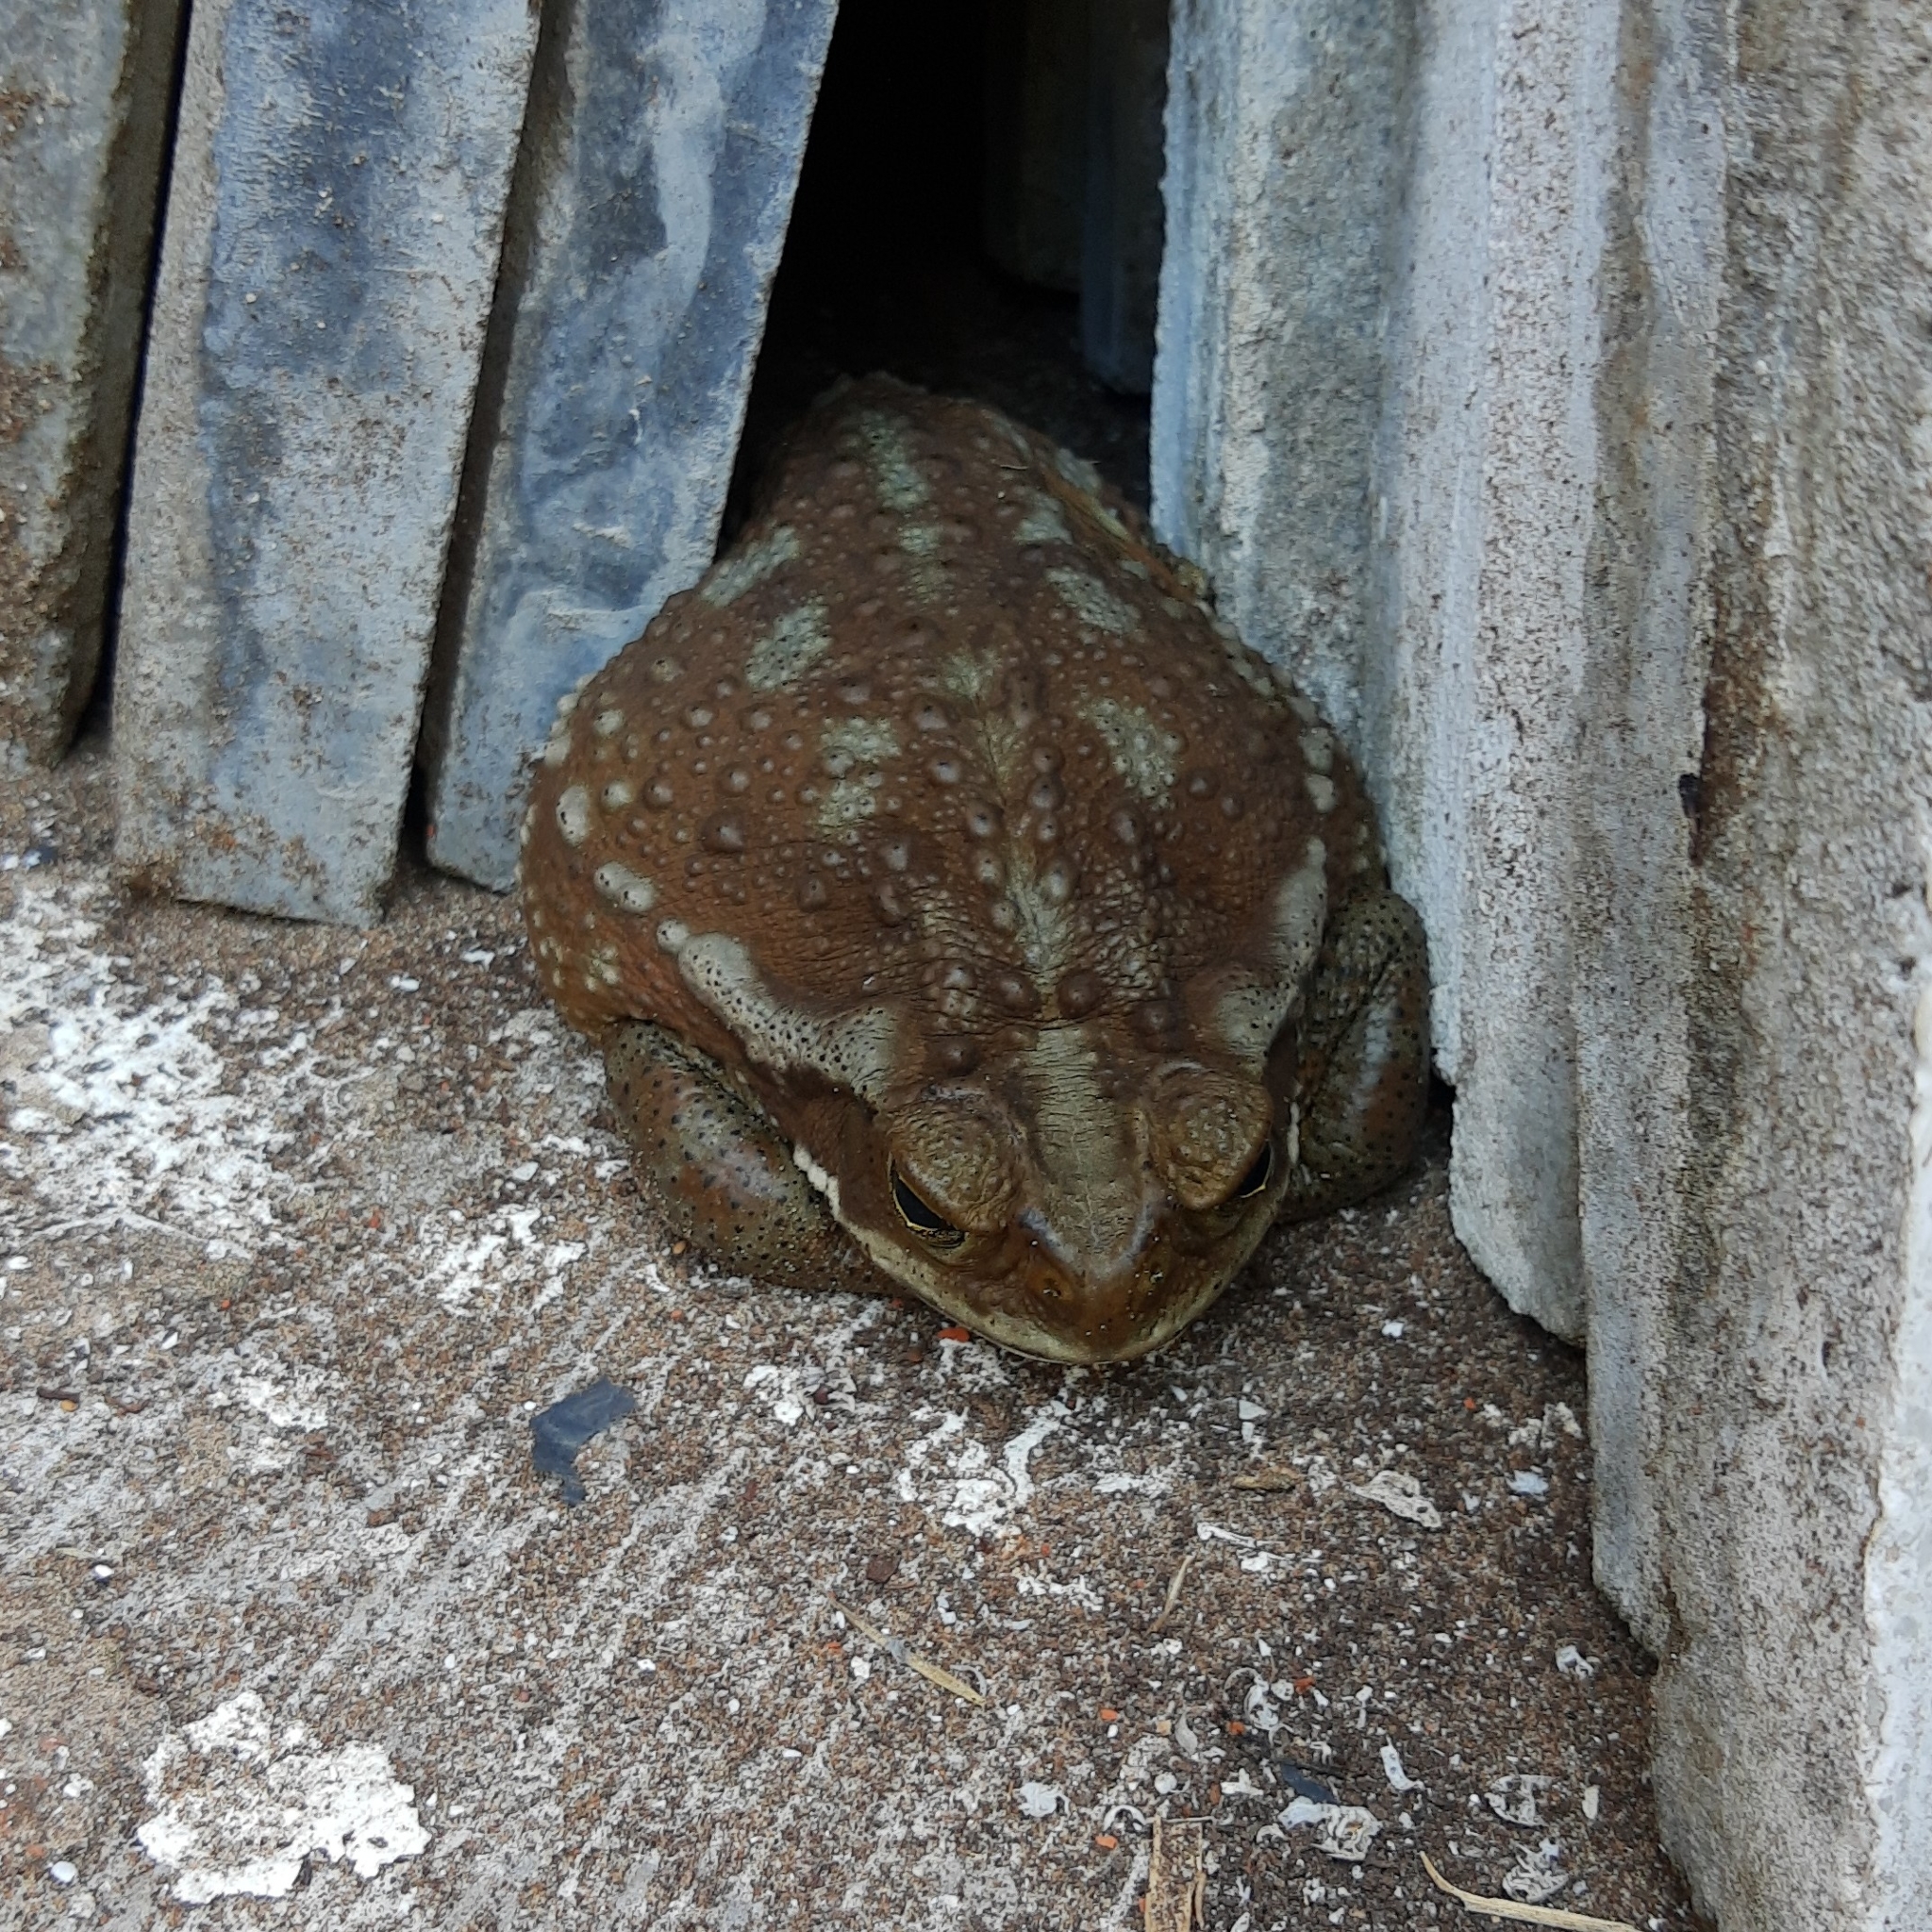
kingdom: Animalia
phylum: Chordata
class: Amphibia
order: Anura
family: Bufonidae
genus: Rhinella
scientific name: Rhinella arenarum
